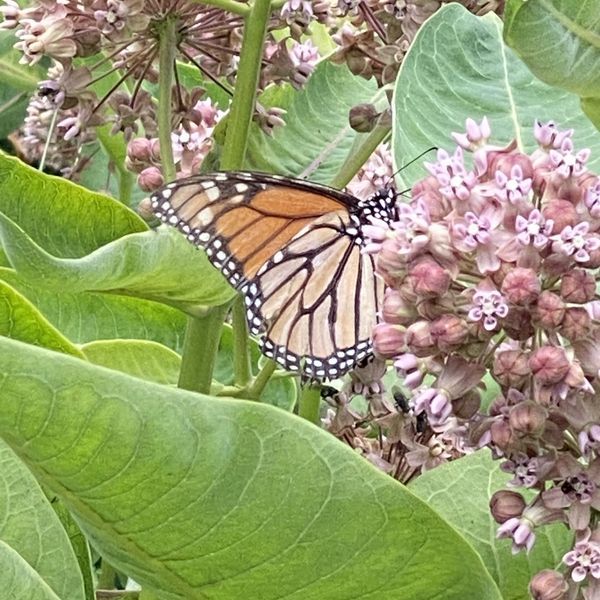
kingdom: Animalia
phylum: Arthropoda
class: Insecta
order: Lepidoptera
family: Nymphalidae
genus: Danaus
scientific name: Danaus plexippus
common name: Monarch
